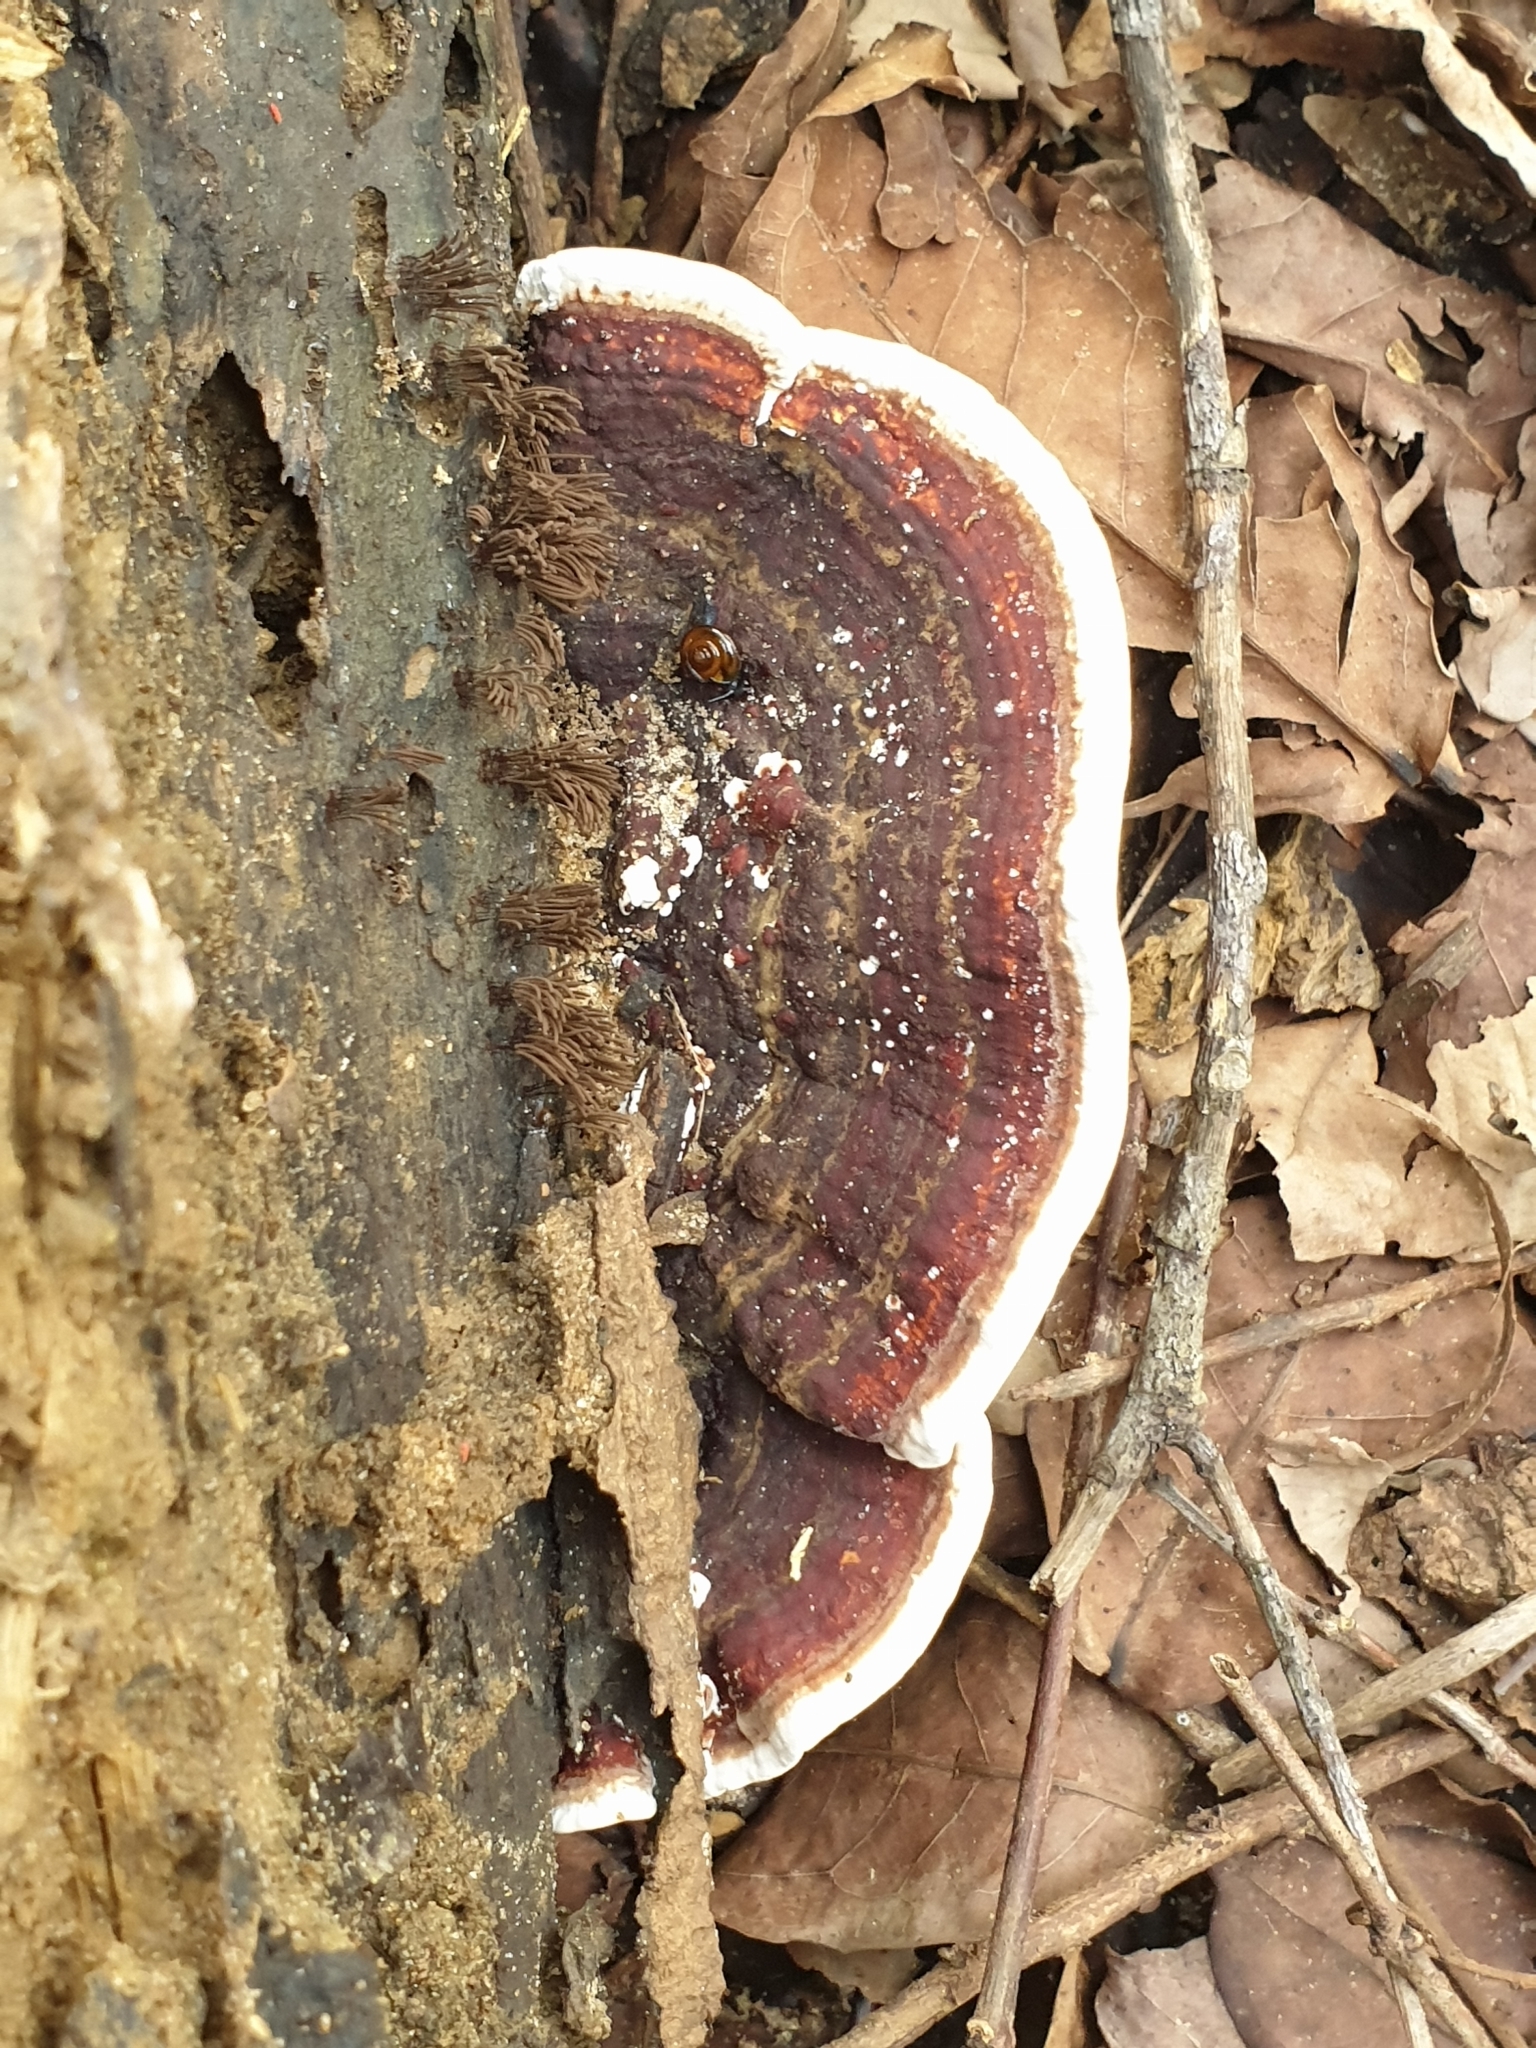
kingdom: Fungi
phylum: Basidiomycota
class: Agaricomycetes
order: Polyporales
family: Polyporaceae
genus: Earliella
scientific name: Earliella scabrosa
